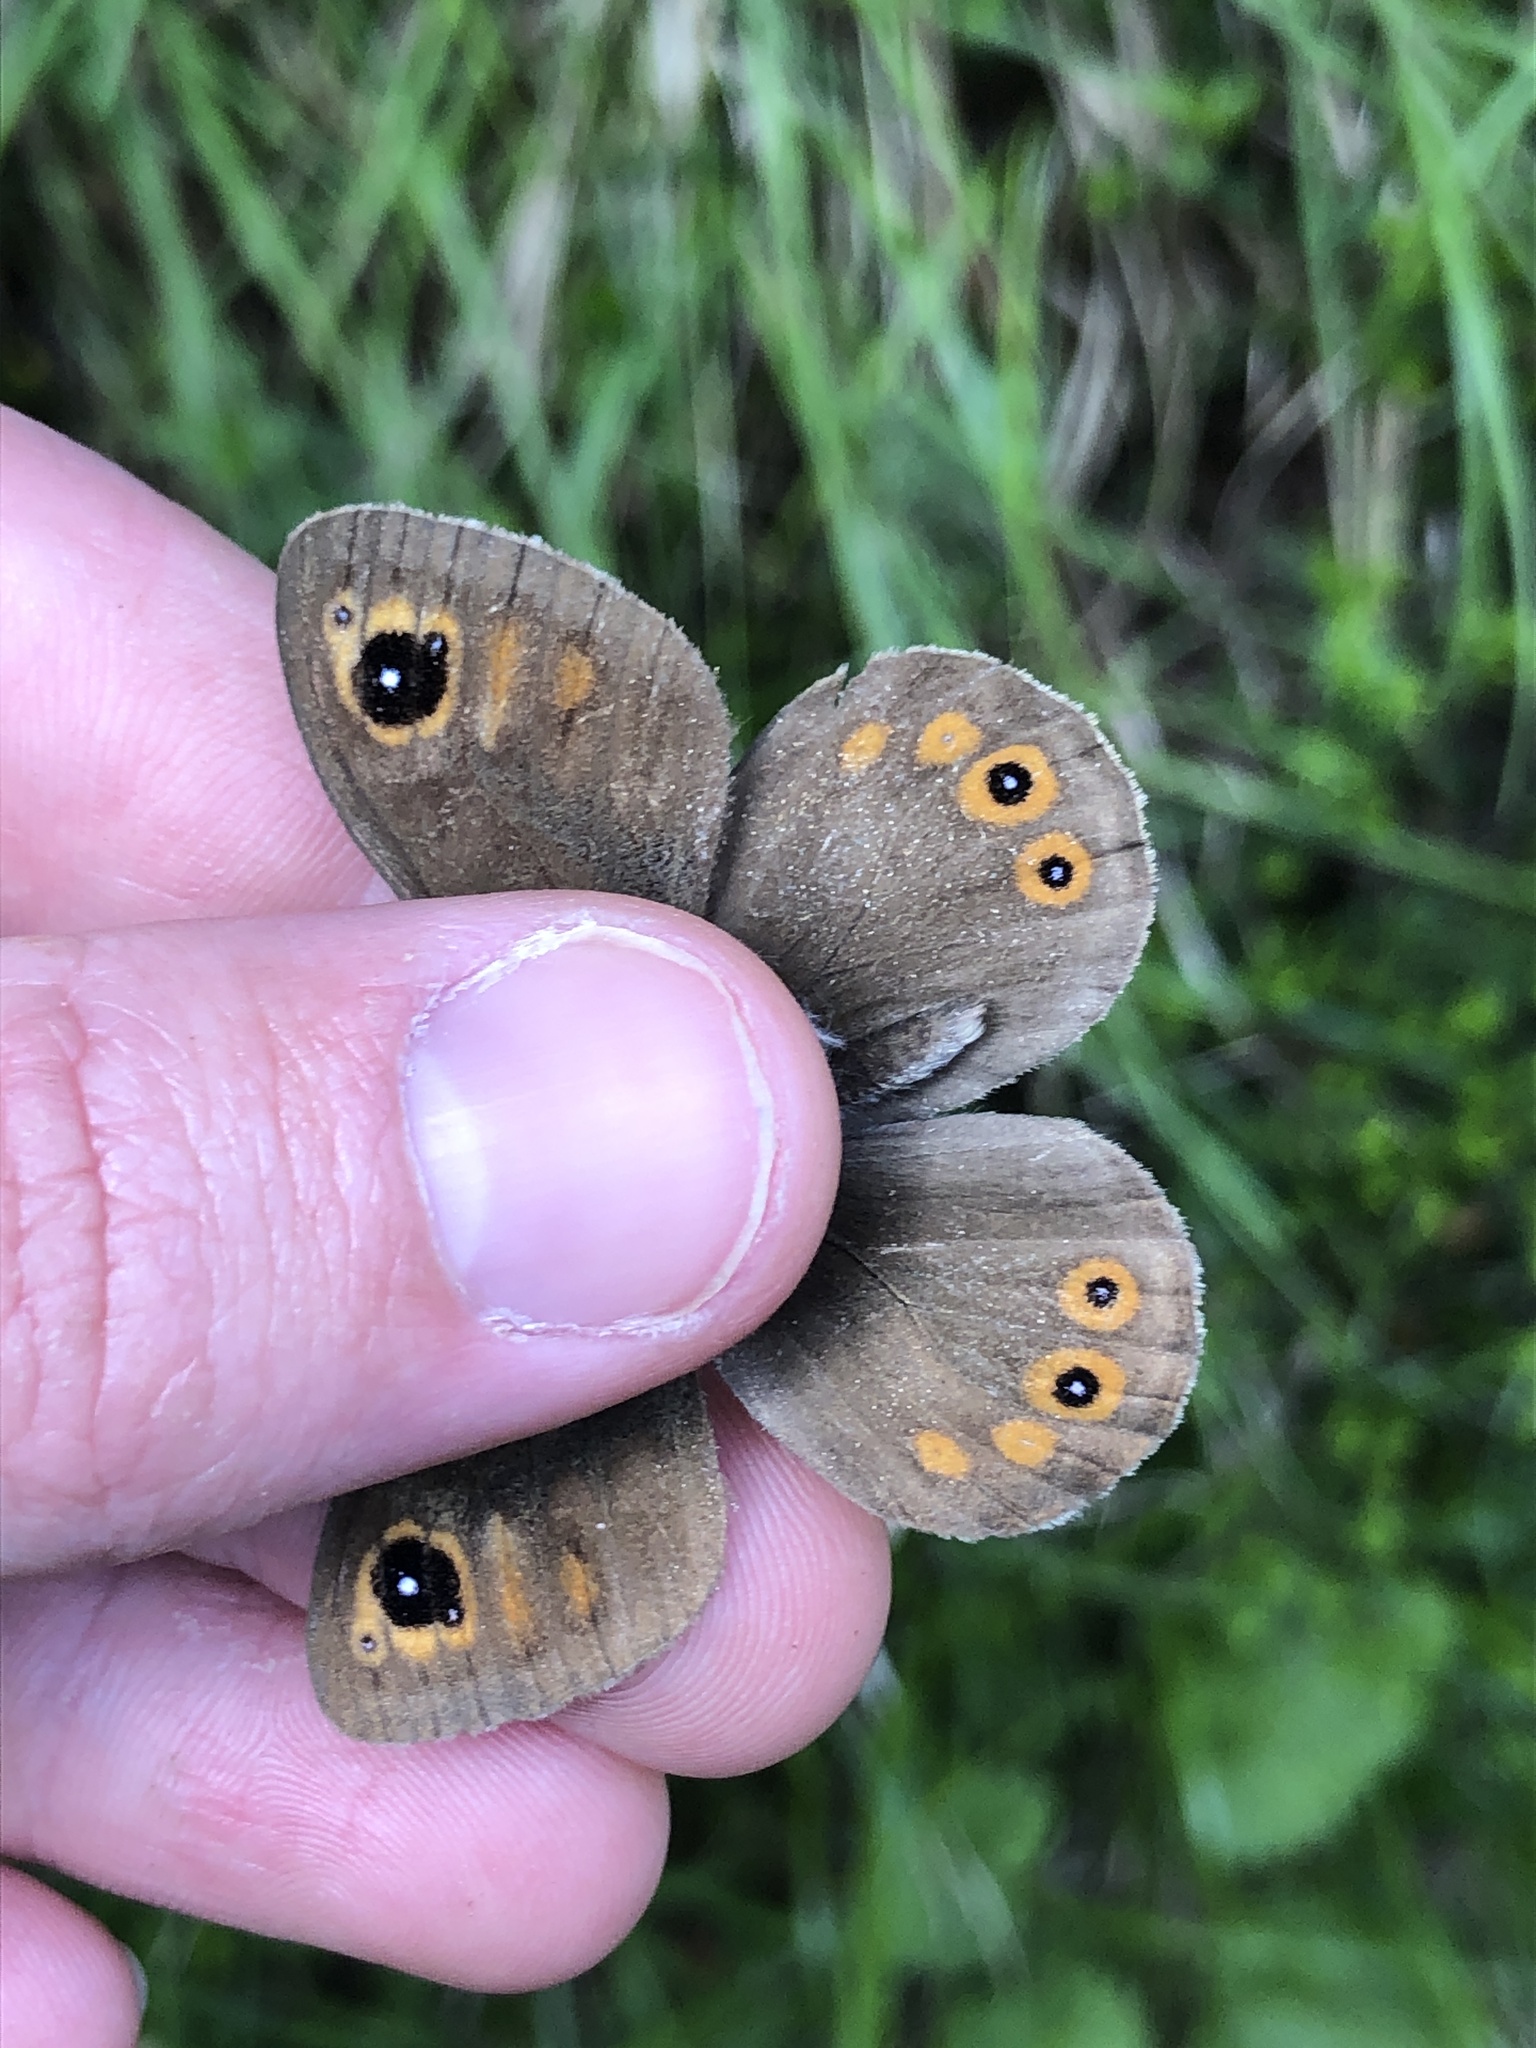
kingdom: Animalia
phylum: Arthropoda
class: Insecta
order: Lepidoptera
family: Nymphalidae
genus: Pararge
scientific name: Pararge Lasiommata maera
